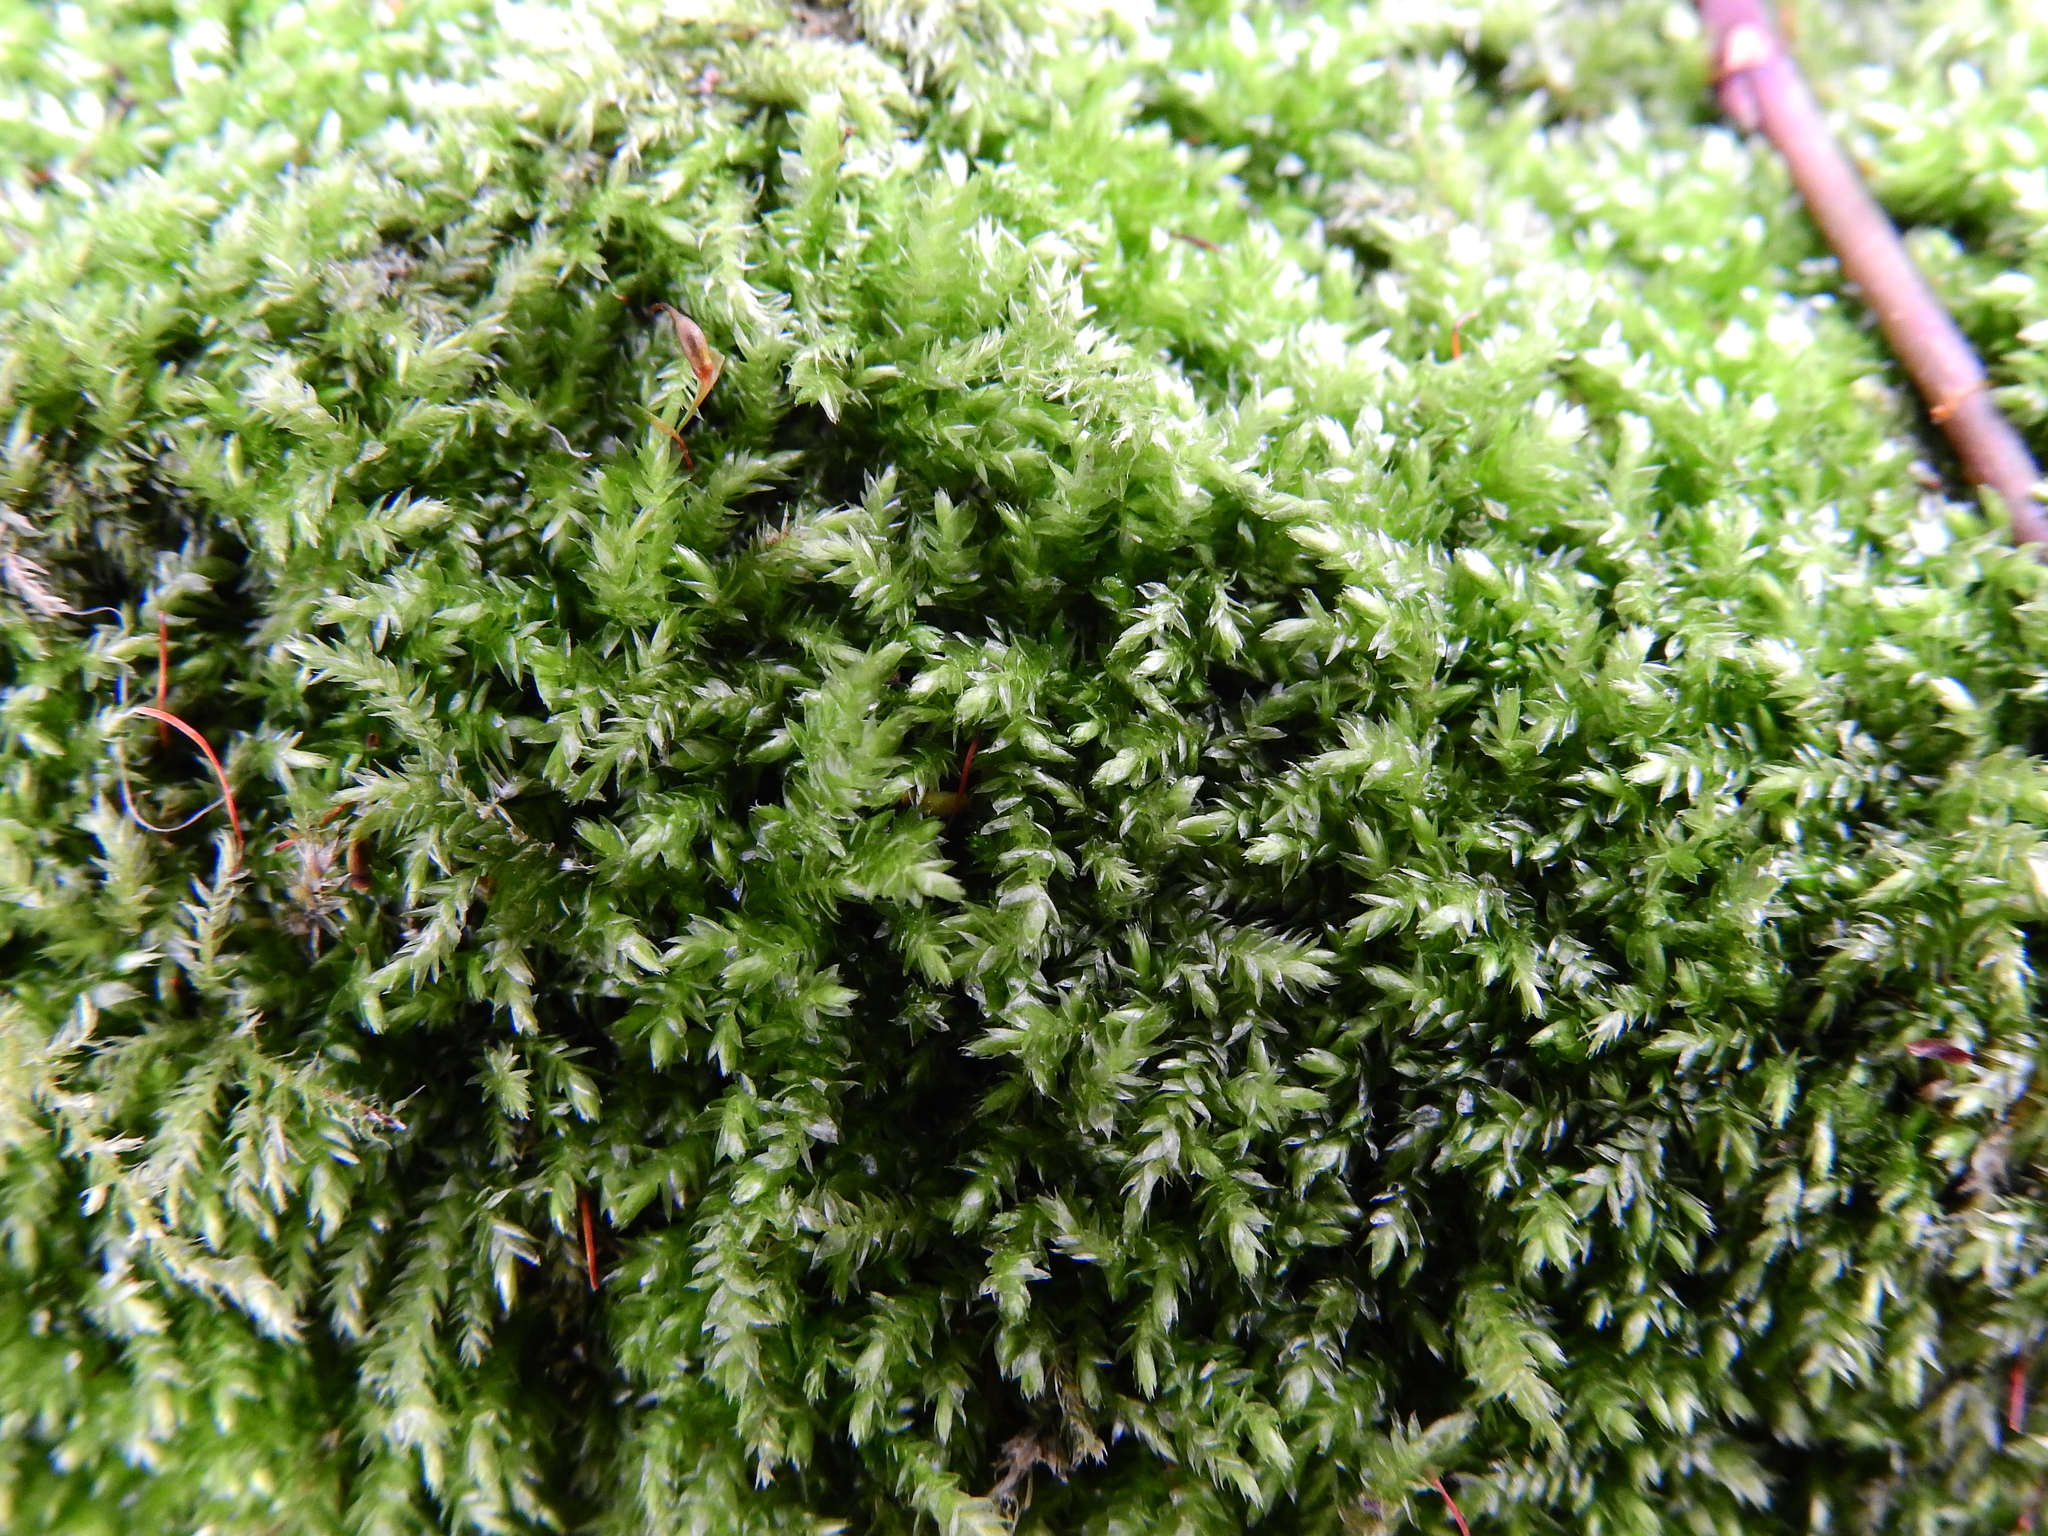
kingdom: Plantae
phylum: Bryophyta
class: Bryopsida
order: Hypnales
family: Brachytheciaceae
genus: Rhynchostegium
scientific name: Rhynchostegium confertum
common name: Clustered feather-moss
